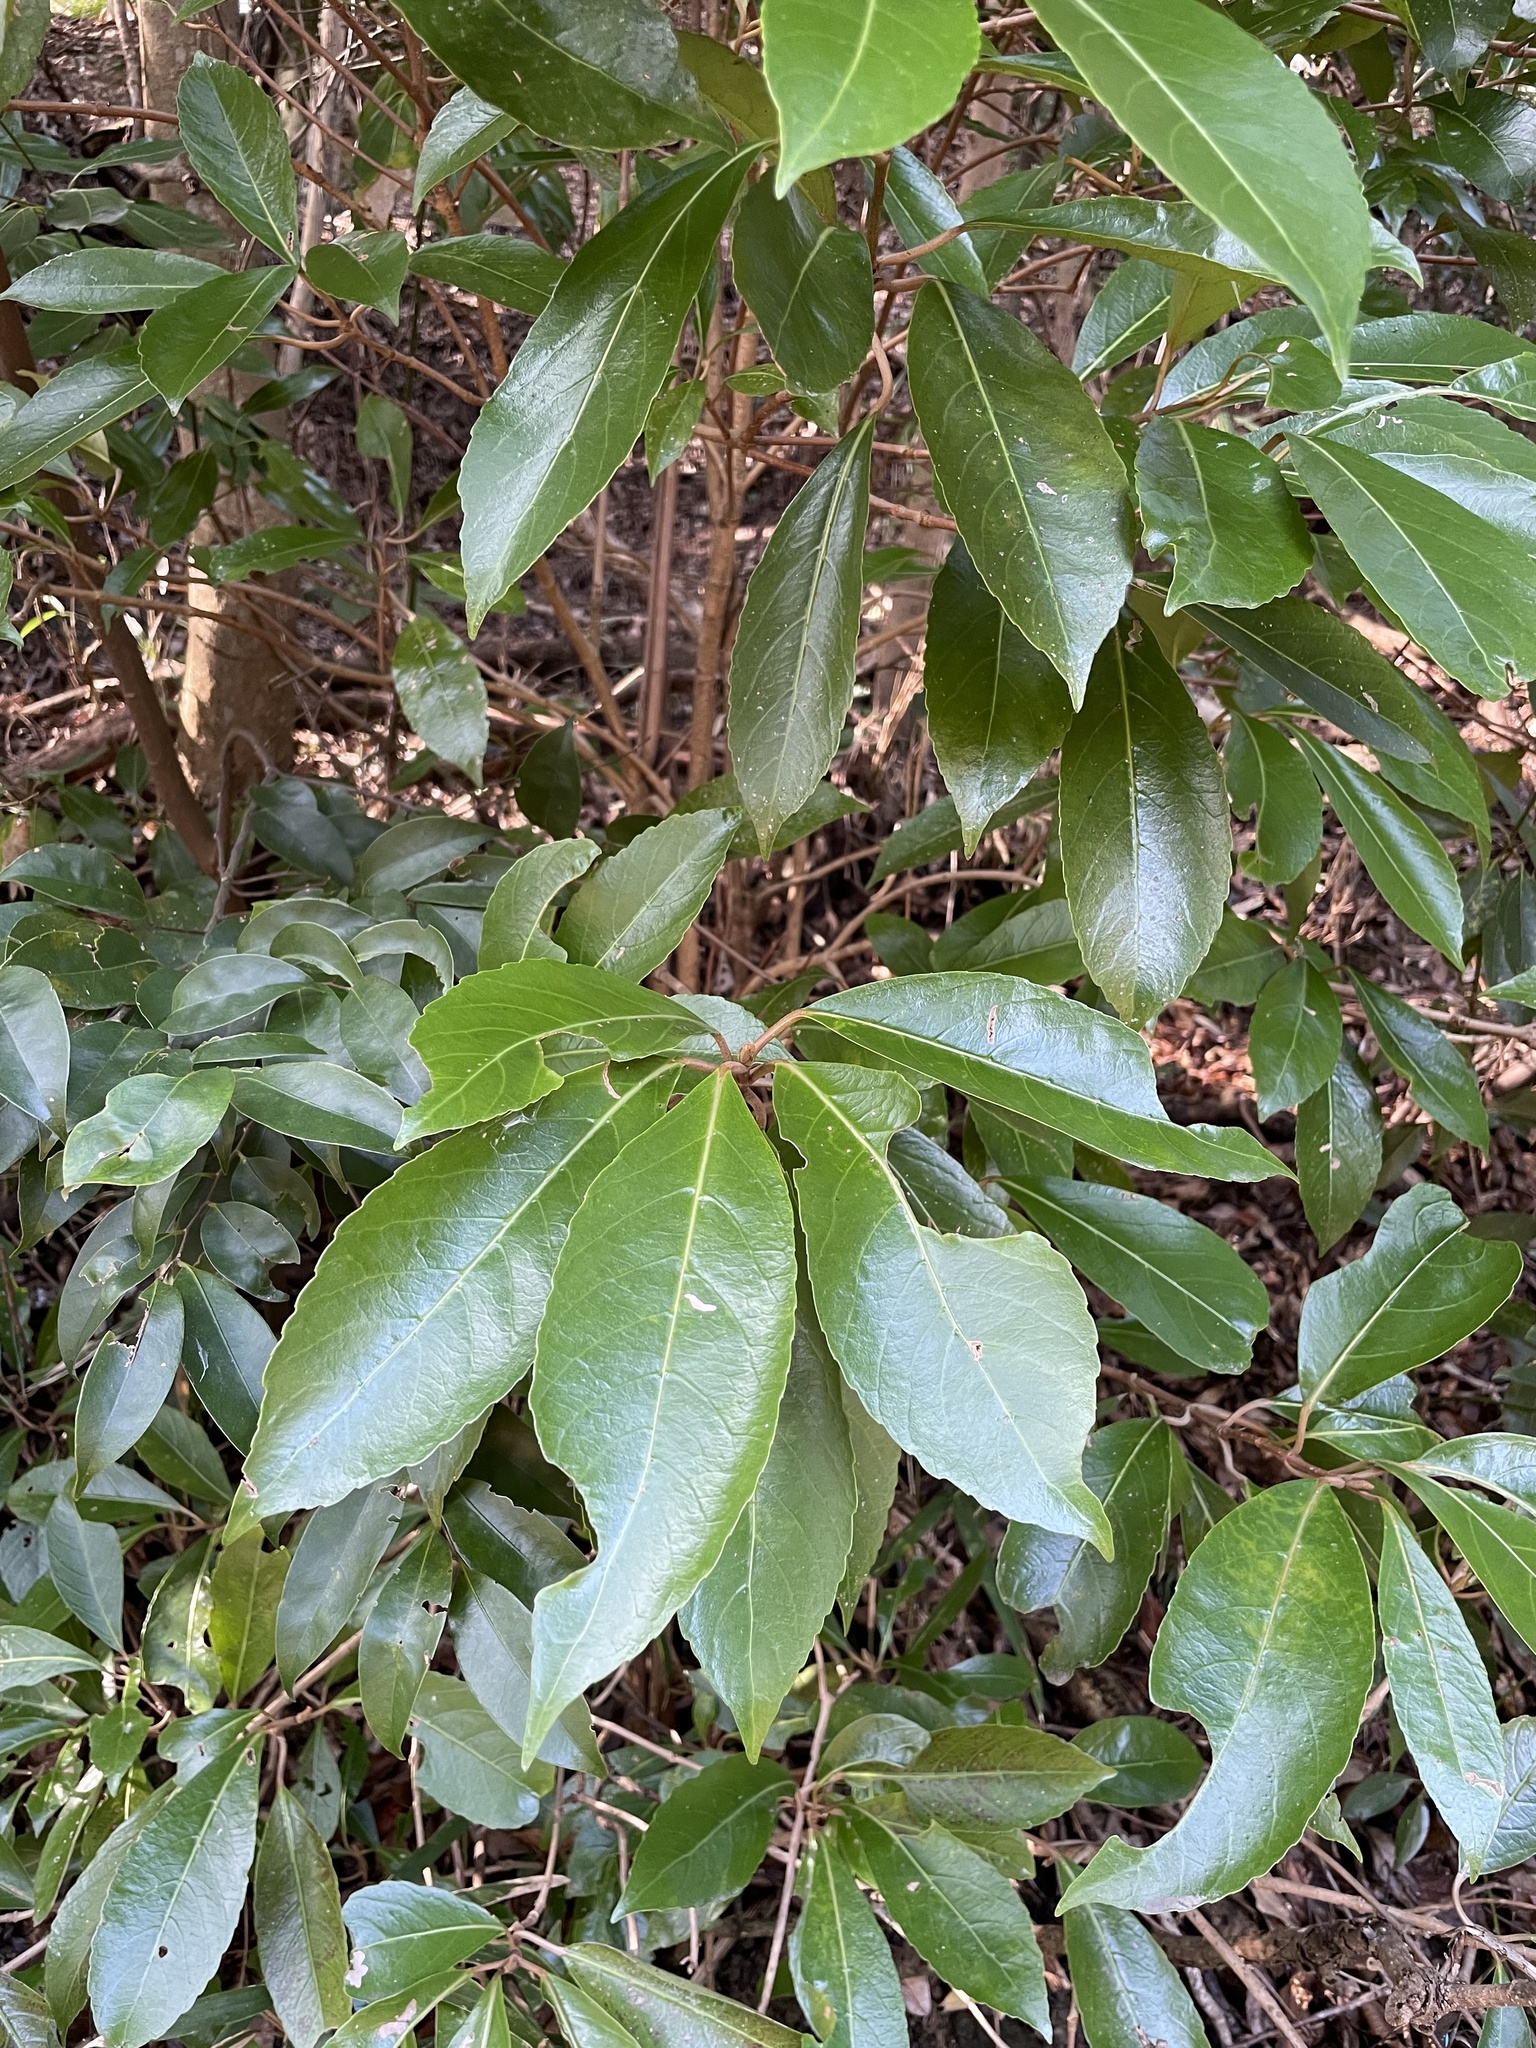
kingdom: Plantae
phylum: Tracheophyta
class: Magnoliopsida
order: Dipsacales
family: Viburnaceae
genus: Viburnum
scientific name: Viburnum odoratissimum
